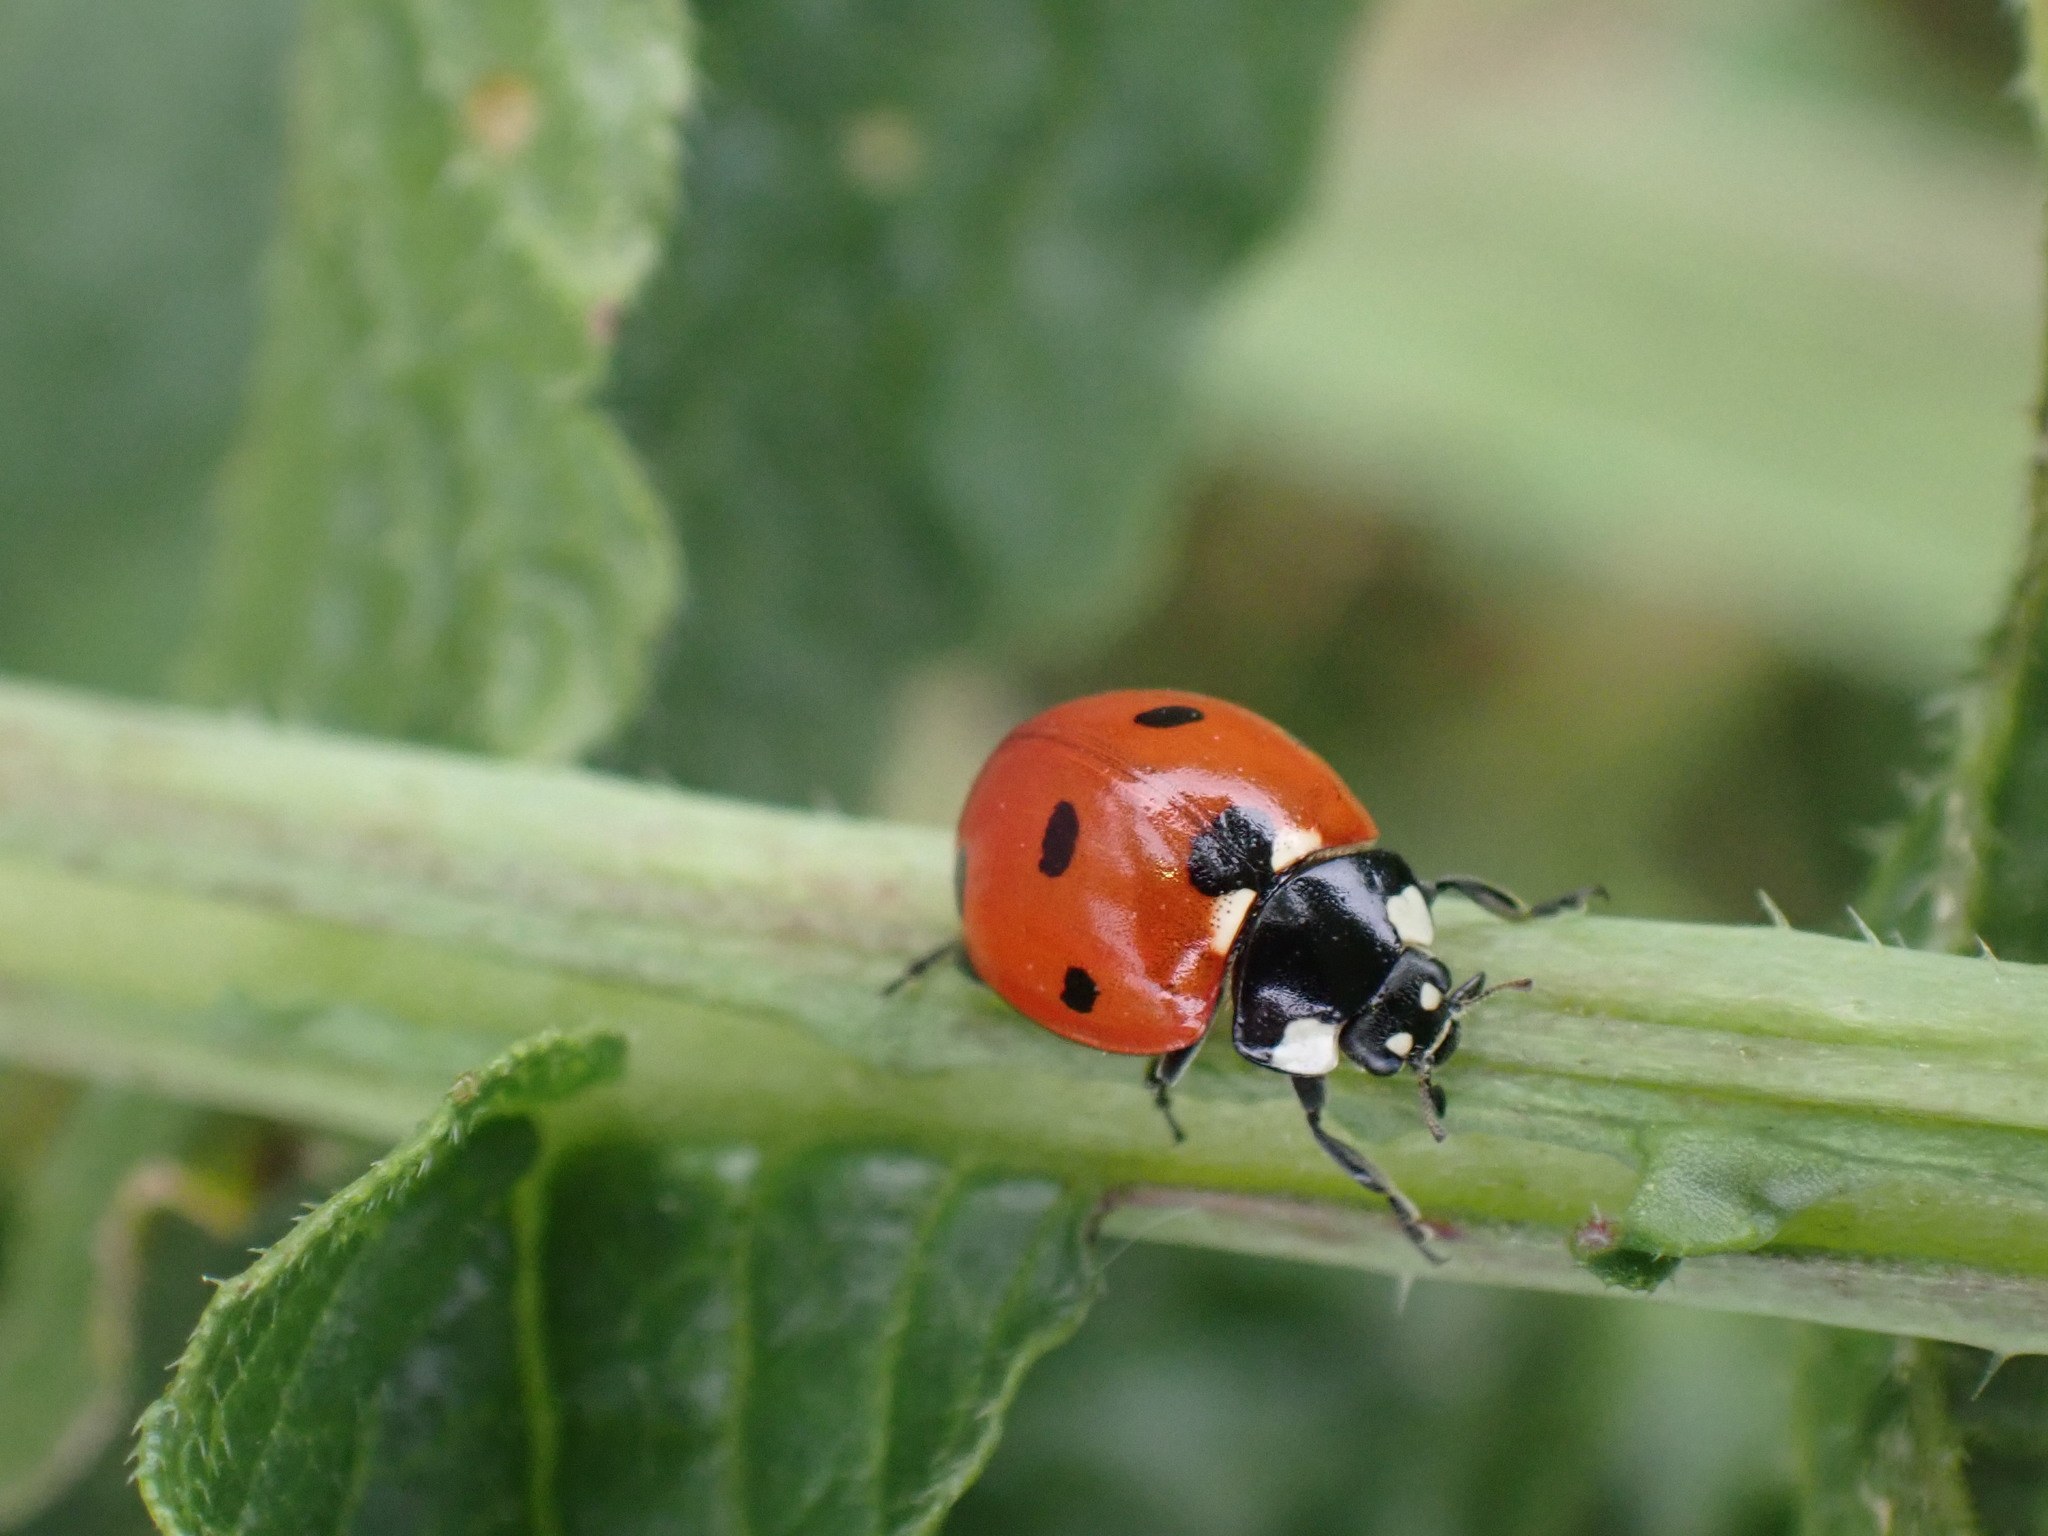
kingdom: Animalia
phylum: Arthropoda
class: Insecta
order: Coleoptera
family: Coccinellidae
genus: Coccinella
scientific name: Coccinella septempunctata
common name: Sevenspotted lady beetle
